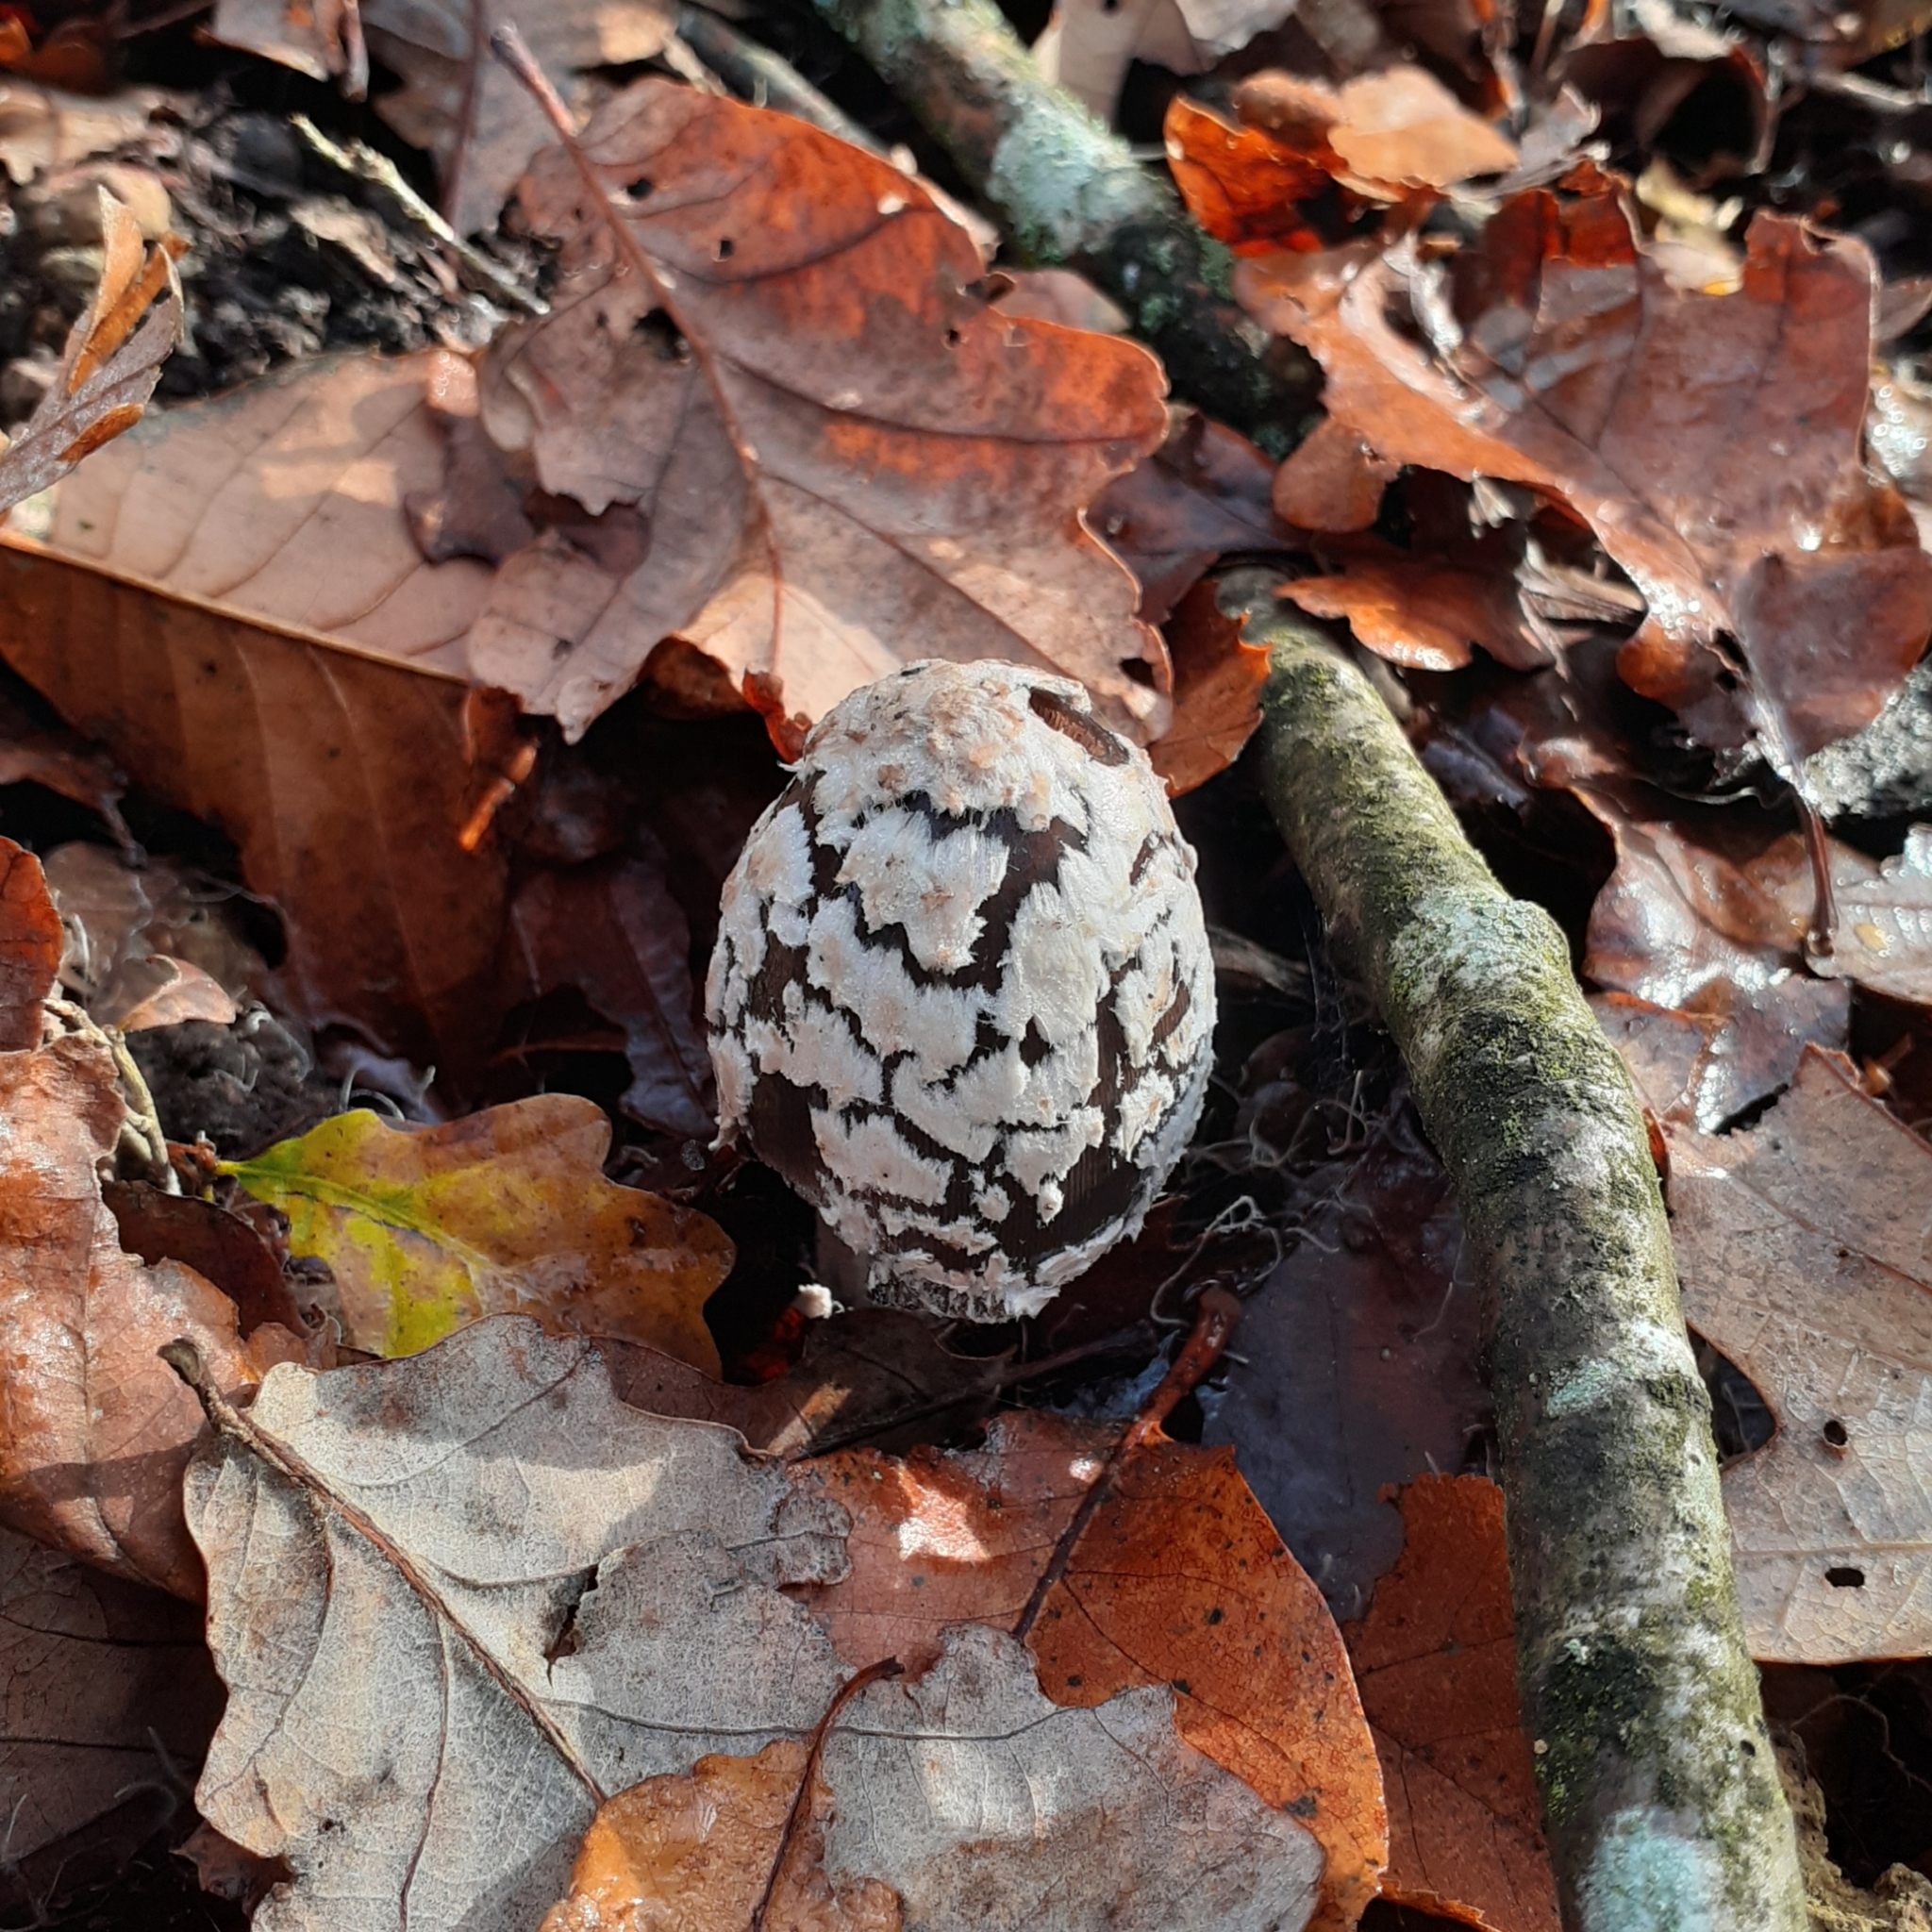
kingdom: Fungi
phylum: Basidiomycota
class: Agaricomycetes
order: Agaricales
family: Psathyrellaceae
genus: Coprinopsis
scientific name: Coprinopsis picacea
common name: Magpie inkcap
